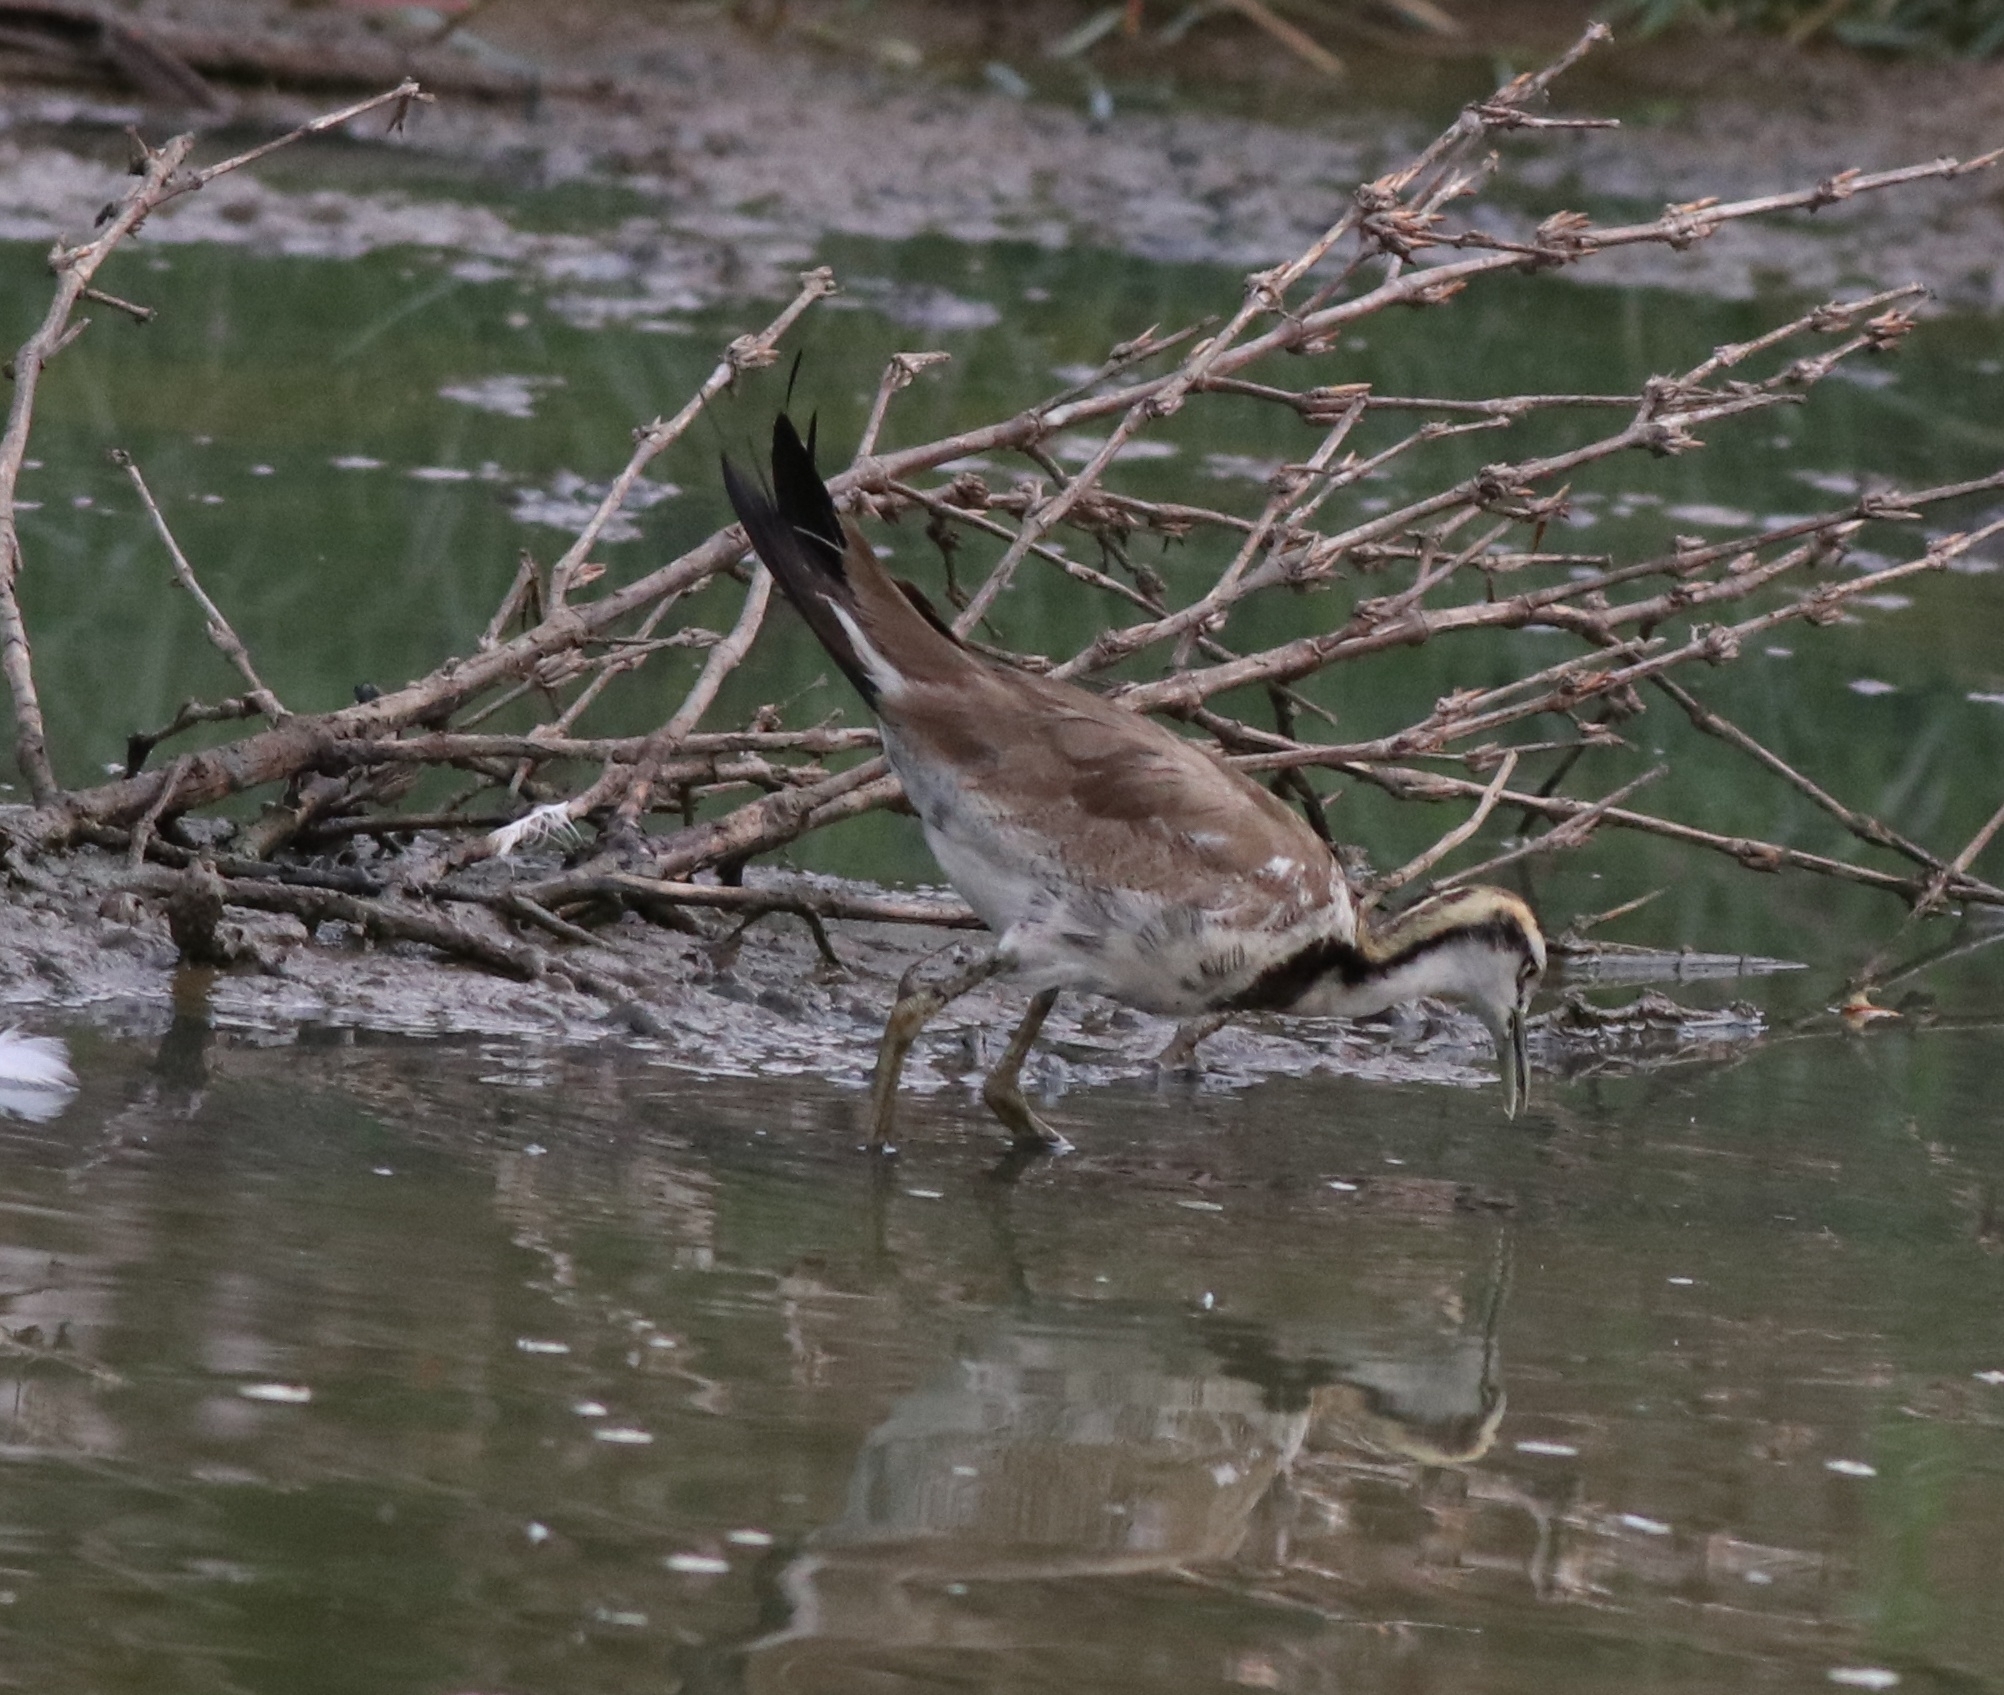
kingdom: Animalia
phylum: Chordata
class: Aves
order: Charadriiformes
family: Jacanidae
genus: Hydrophasianus
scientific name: Hydrophasianus chirurgus
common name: Pheasant-tailed jacana
